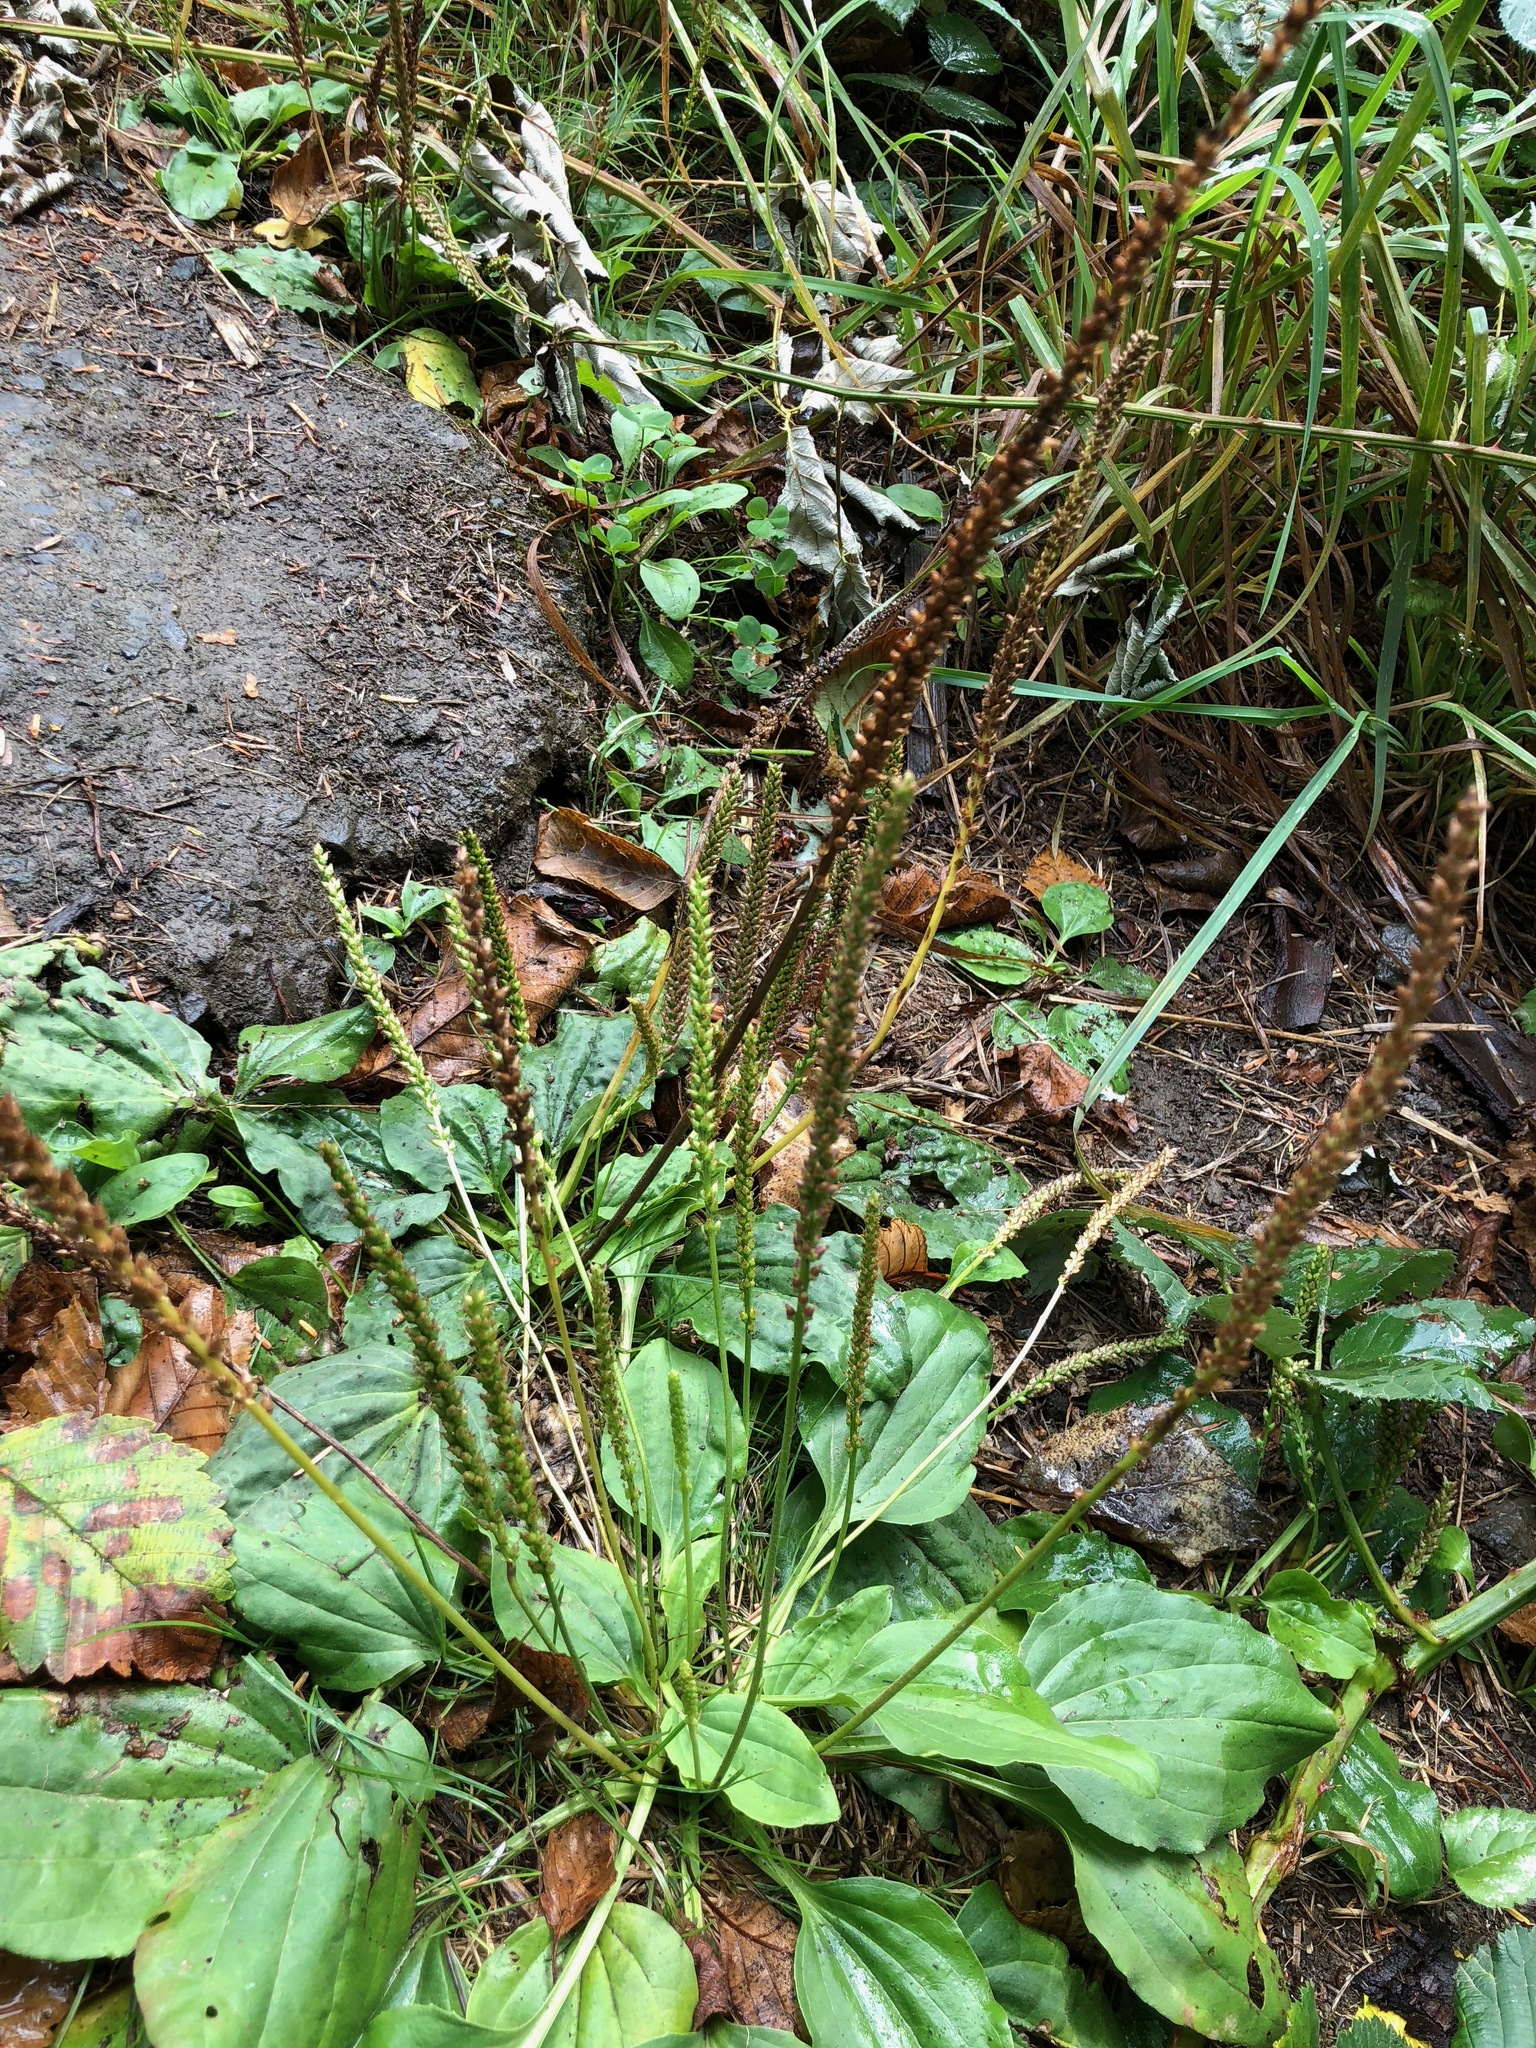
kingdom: Plantae
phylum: Tracheophyta
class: Magnoliopsida
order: Lamiales
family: Plantaginaceae
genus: Plantago
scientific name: Plantago major
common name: Common plantain
